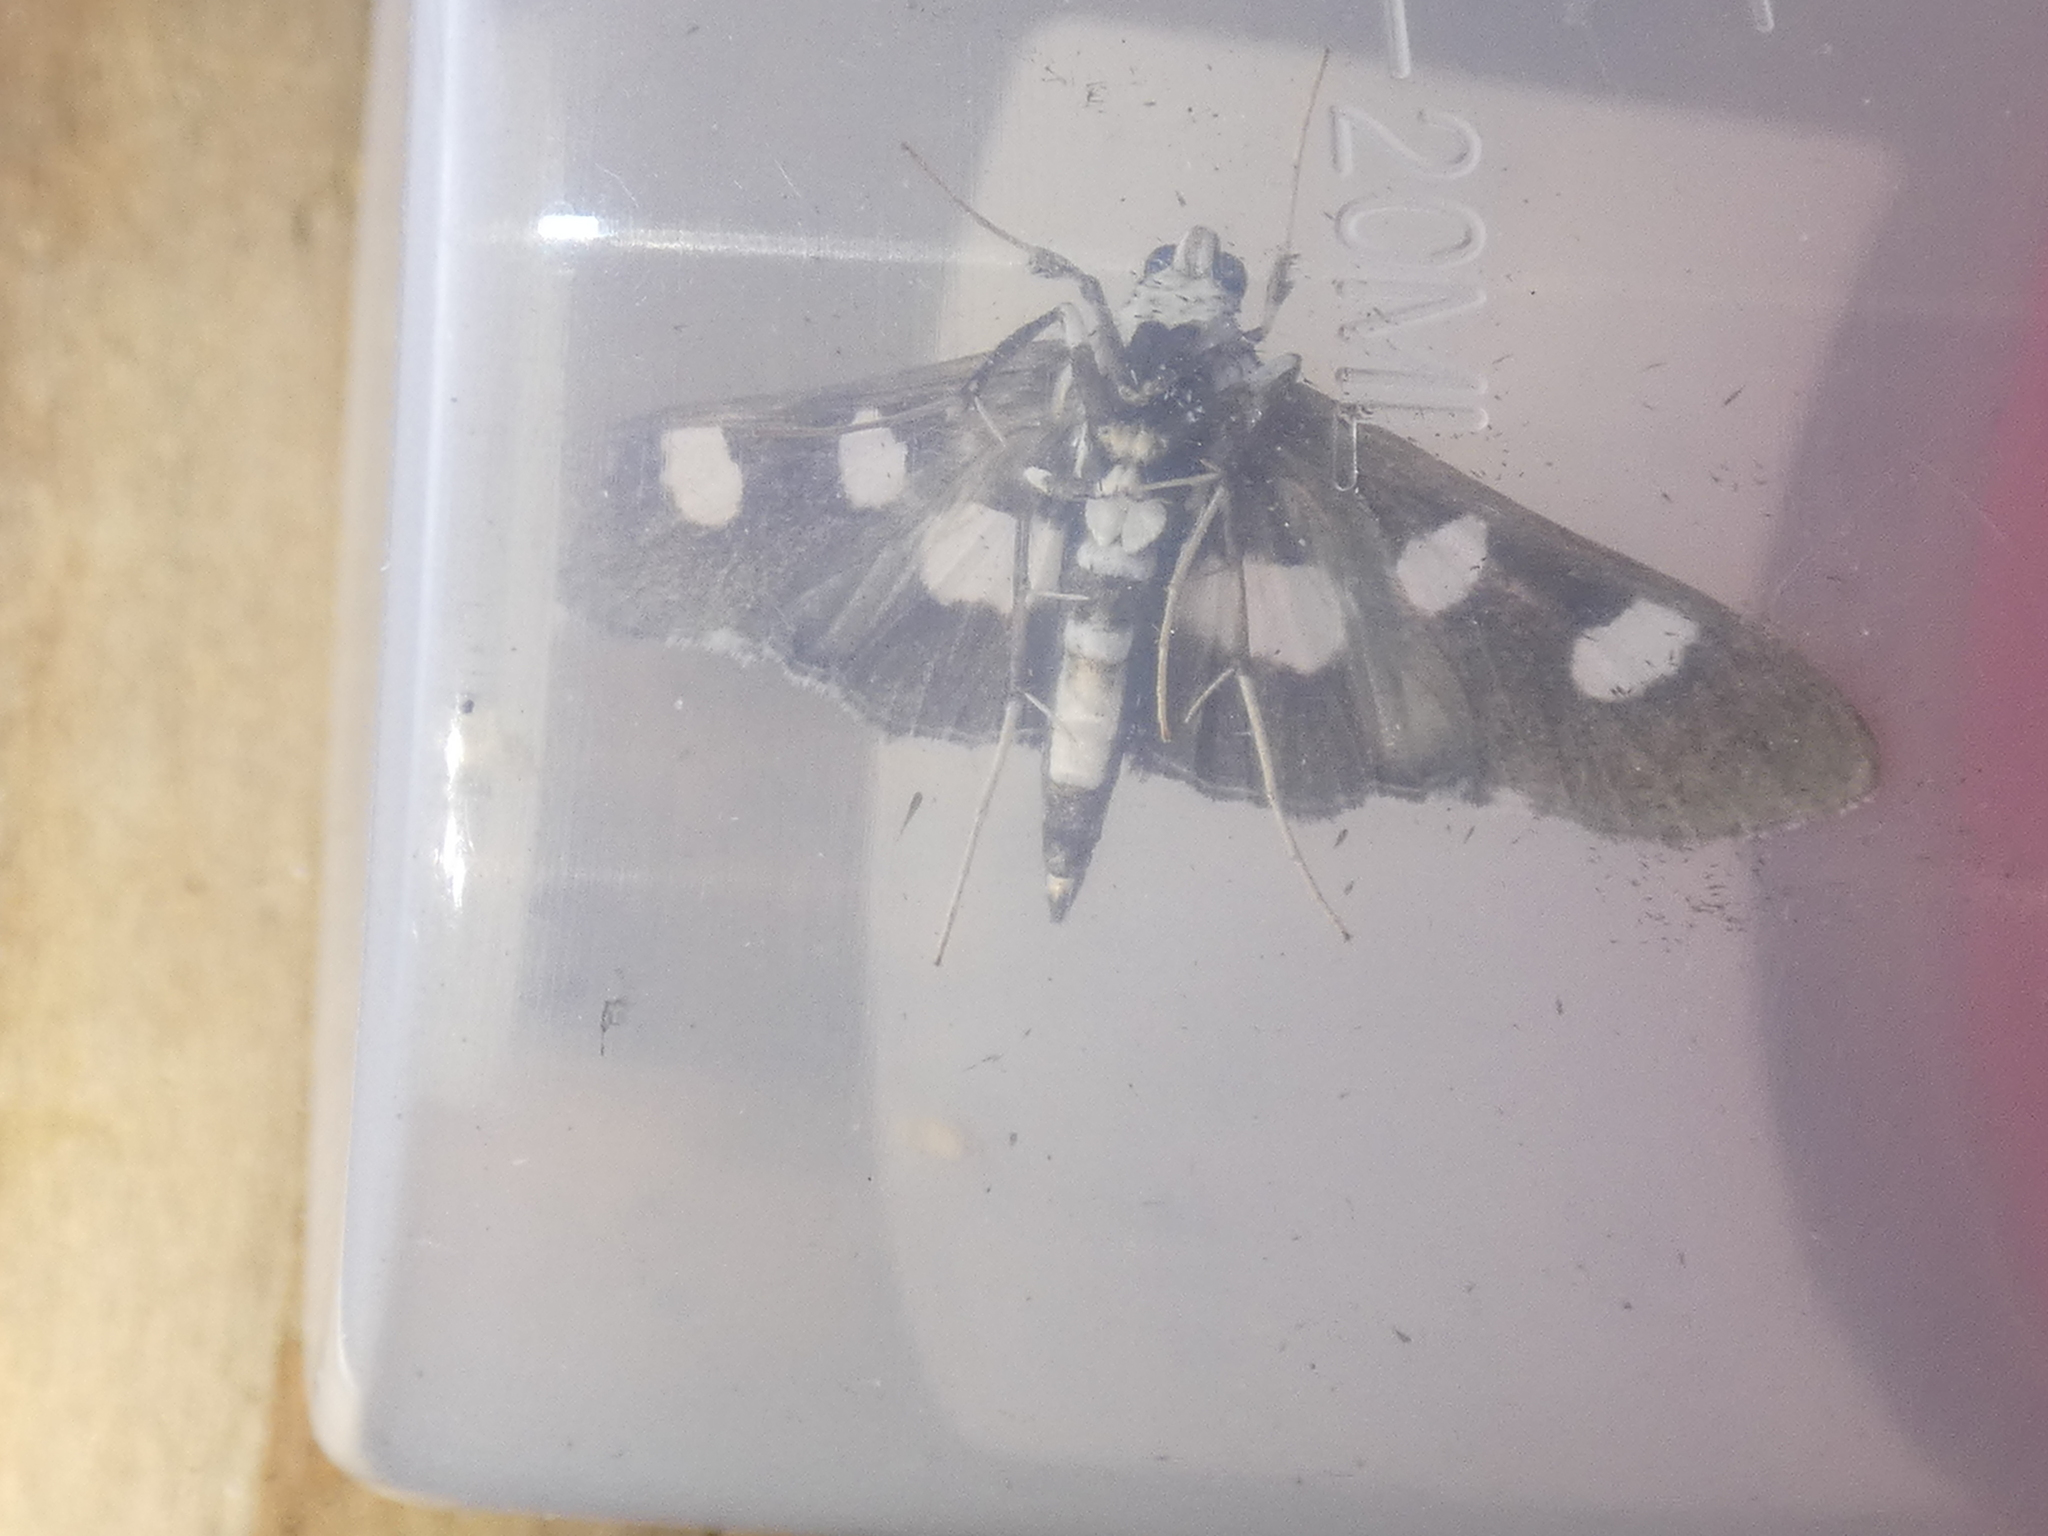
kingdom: Animalia
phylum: Arthropoda
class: Insecta
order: Lepidoptera
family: Crambidae
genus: Desmia
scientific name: Desmia funeralis
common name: Grape leaf folder moth
